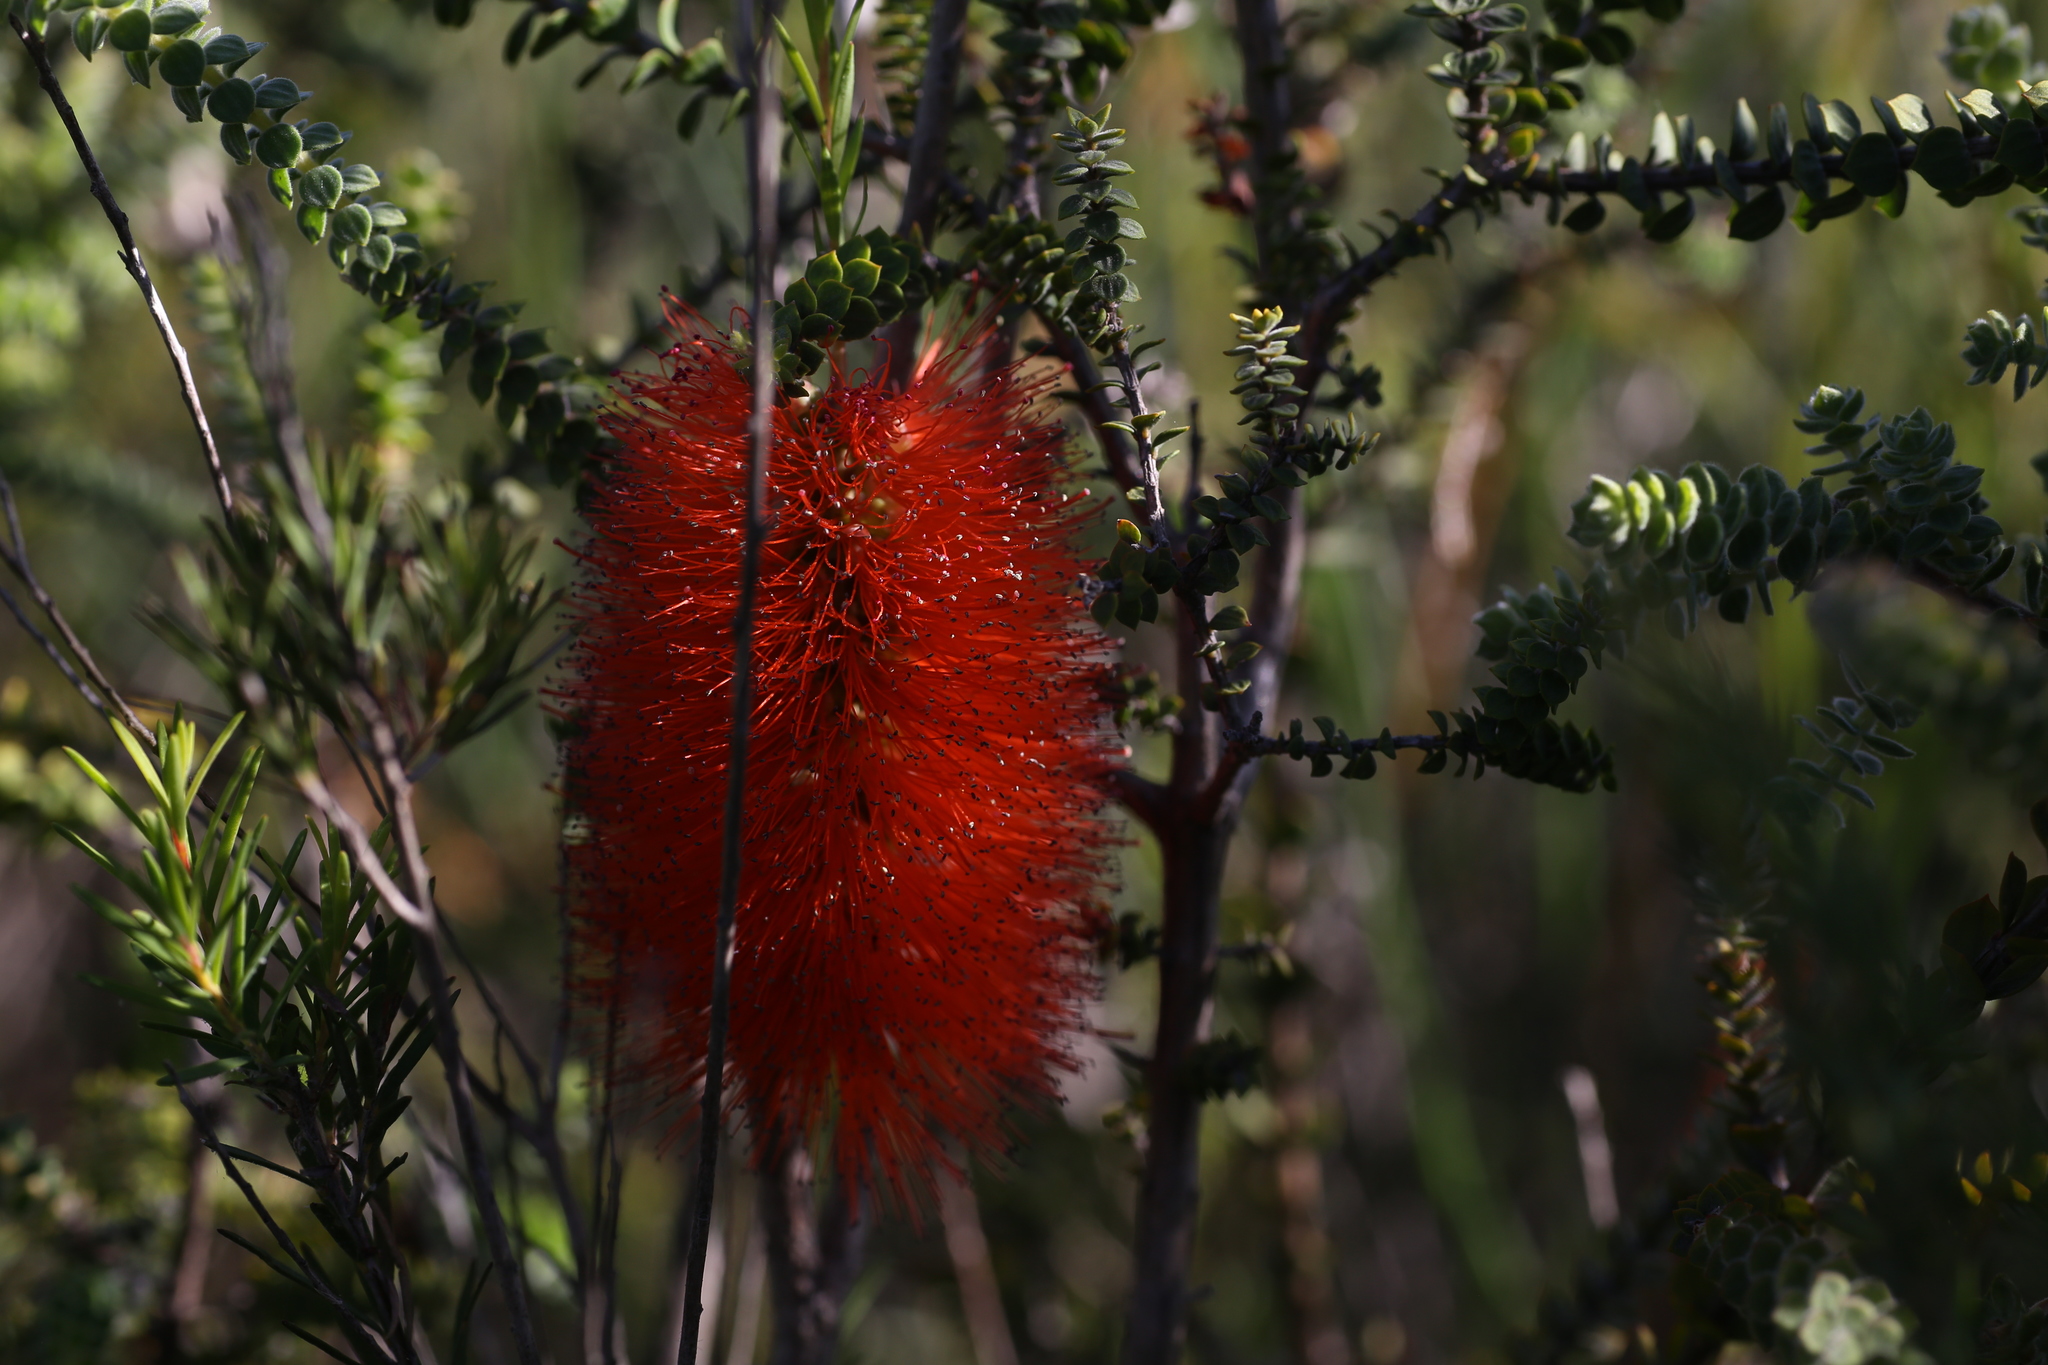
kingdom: Plantae
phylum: Tracheophyta
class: Magnoliopsida
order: Myrtales
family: Myrtaceae
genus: Melaleuca
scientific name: Melaleuca lateritia
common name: Robin red-breast
